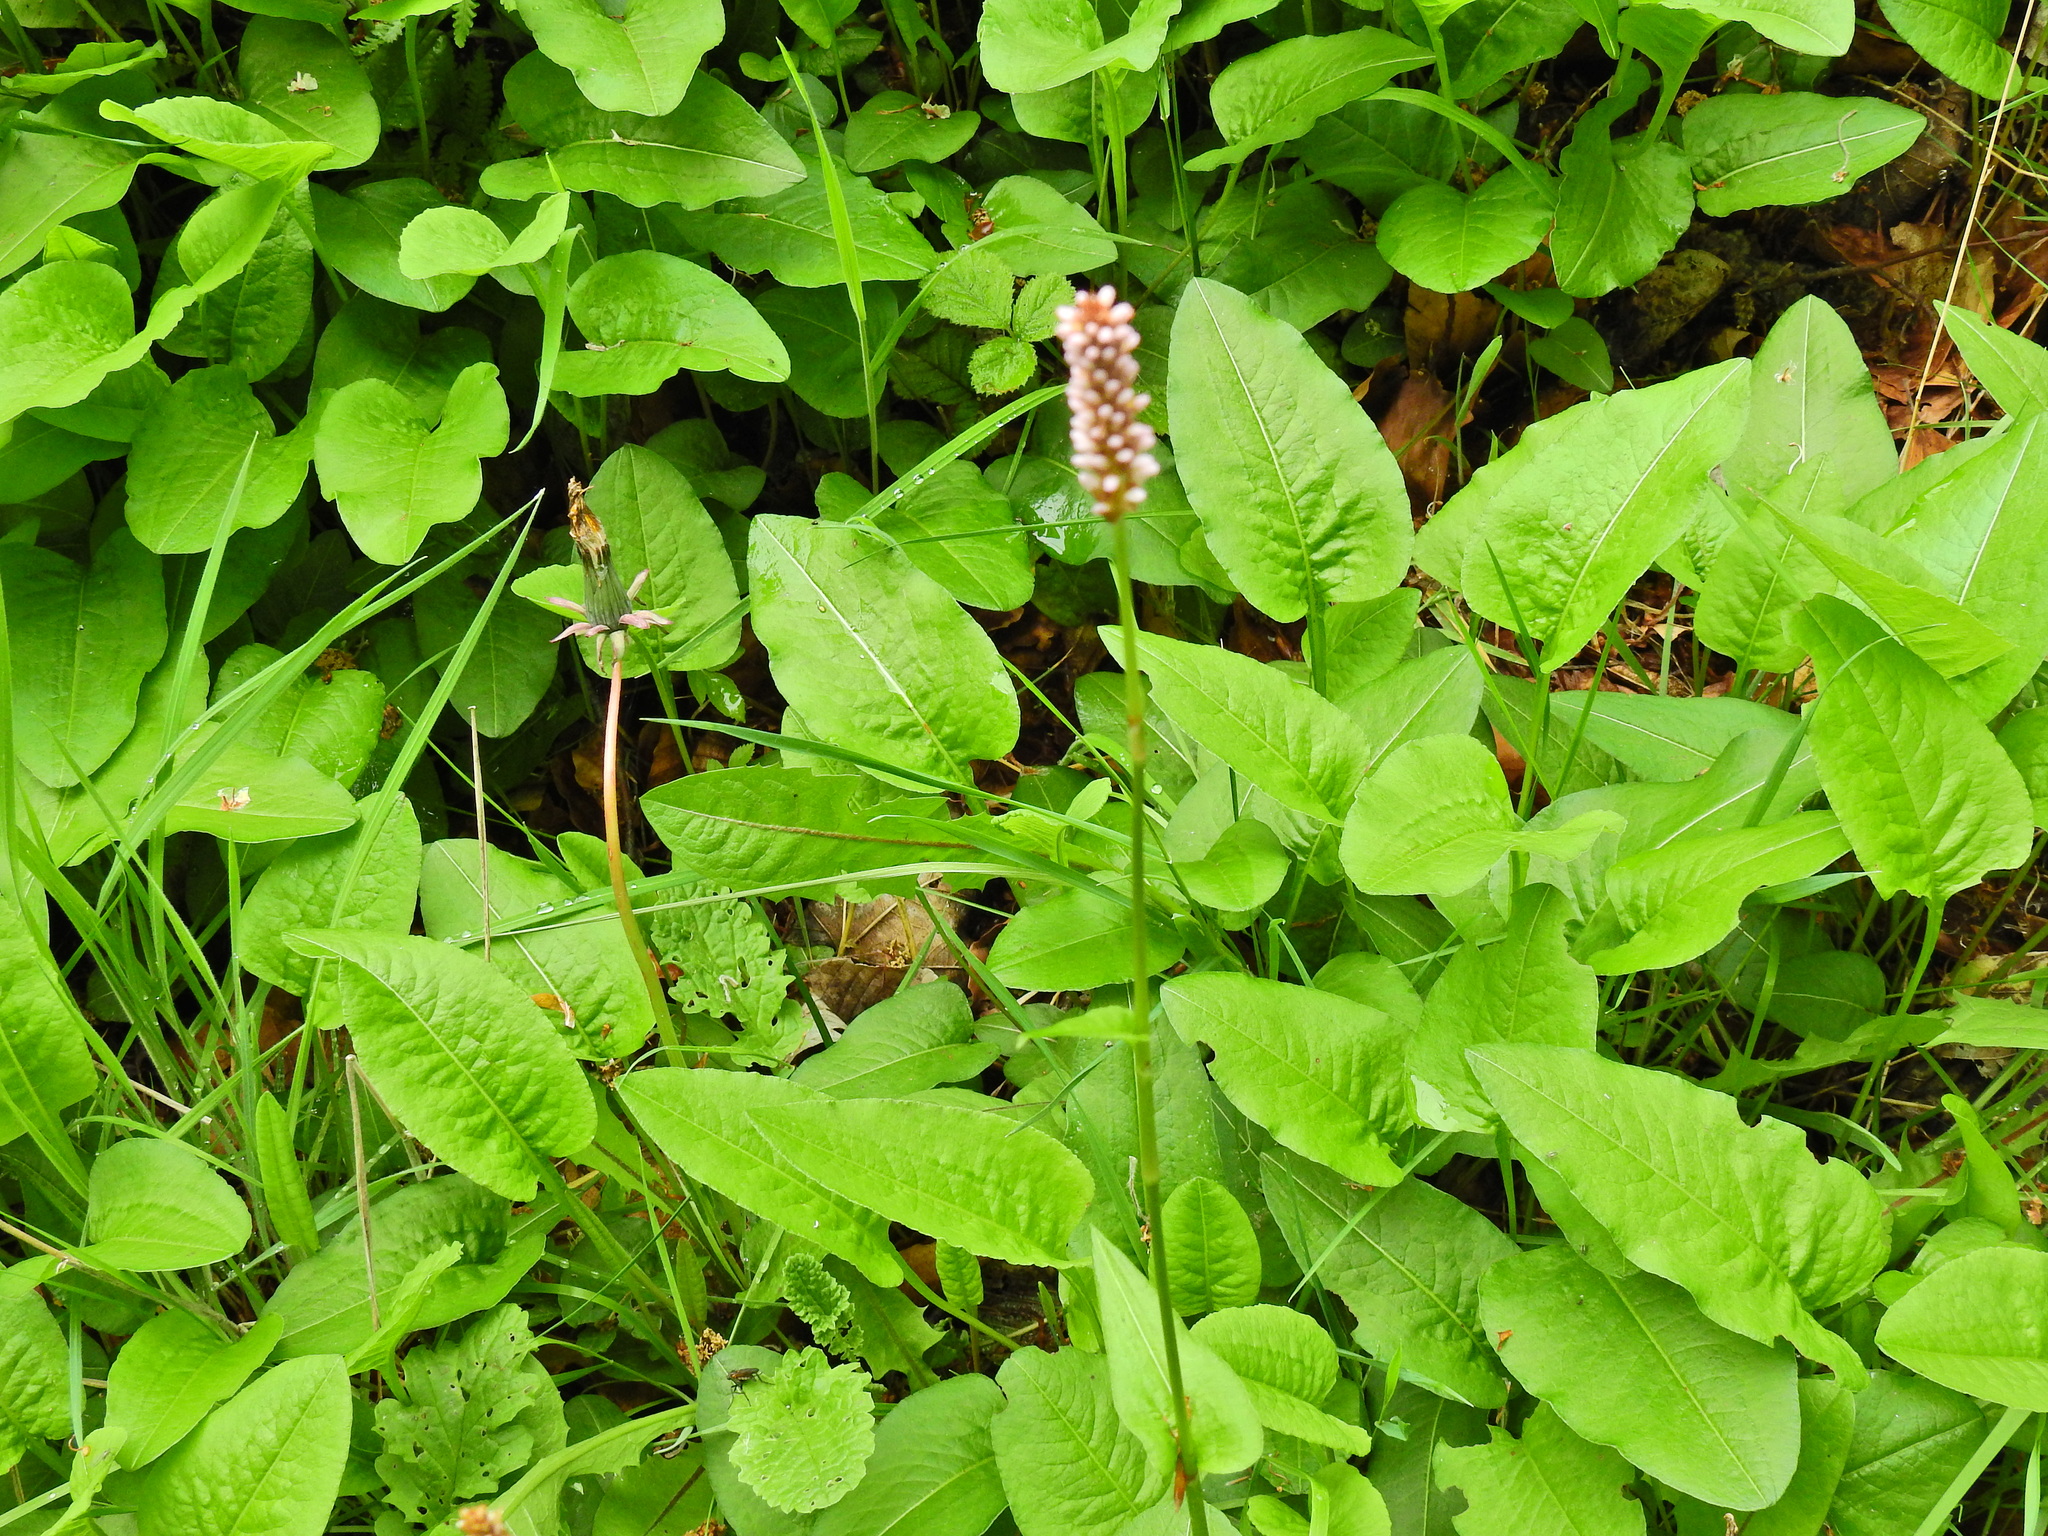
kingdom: Plantae
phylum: Tracheophyta
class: Magnoliopsida
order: Caryophyllales
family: Polygonaceae
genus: Bistorta
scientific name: Bistorta officinalis
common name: Common bistort
